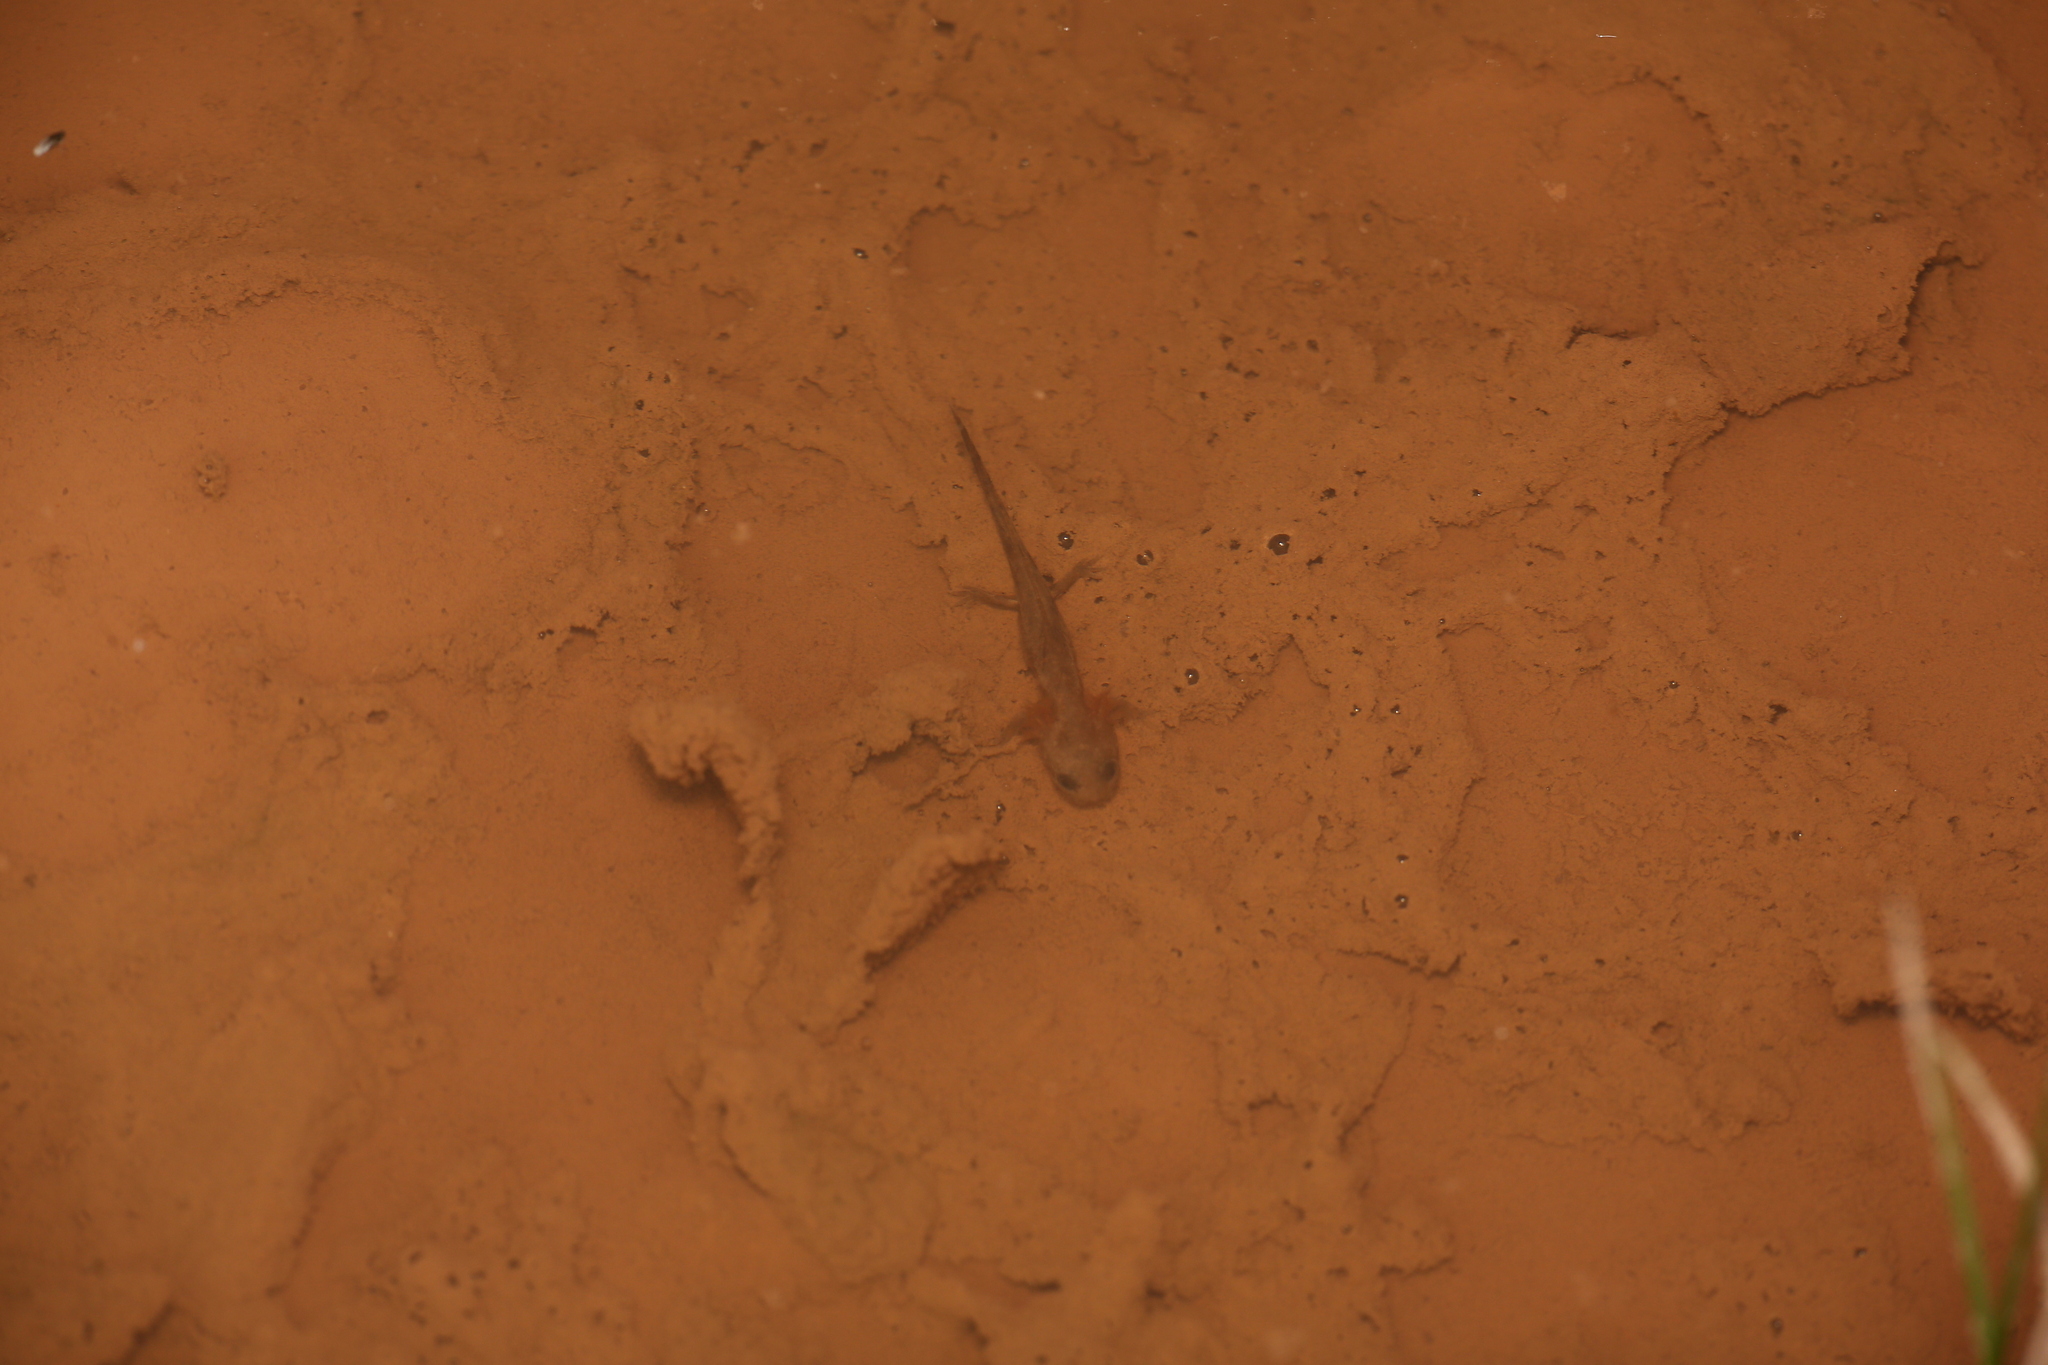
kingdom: Animalia
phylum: Chordata
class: Amphibia
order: Caudata
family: Salamandridae
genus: Salamandra
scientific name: Salamandra algira
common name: North african fire salamander
